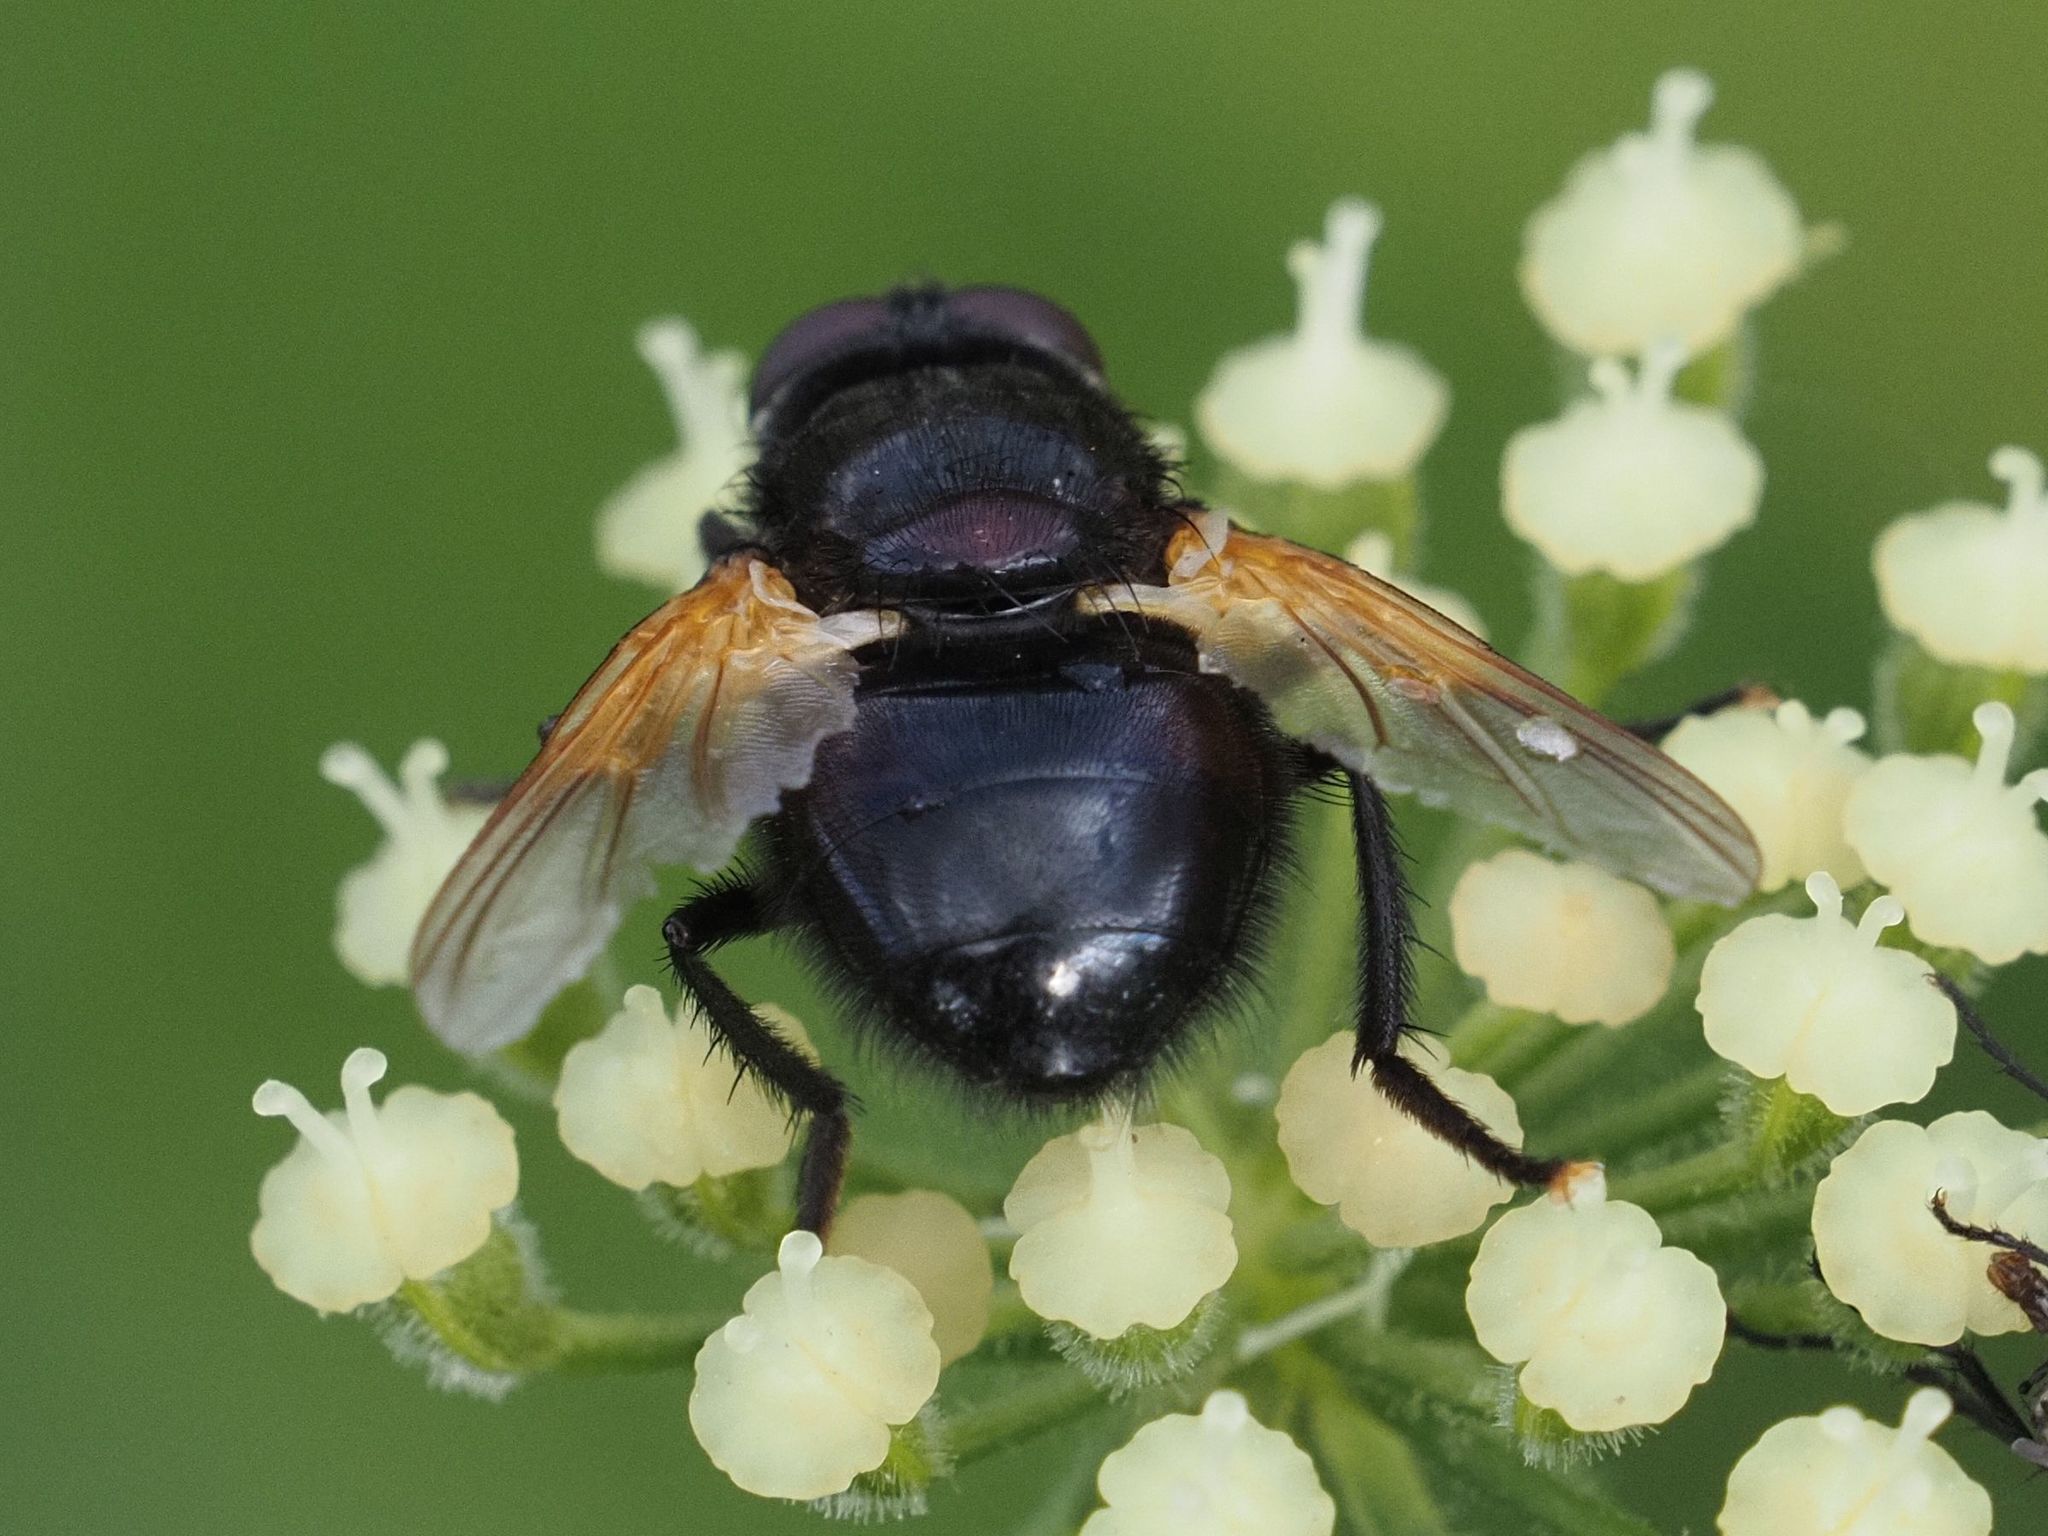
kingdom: Animalia
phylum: Arthropoda
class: Insecta
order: Diptera
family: Muscidae
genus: Mesembrina
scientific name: Mesembrina meridiana
